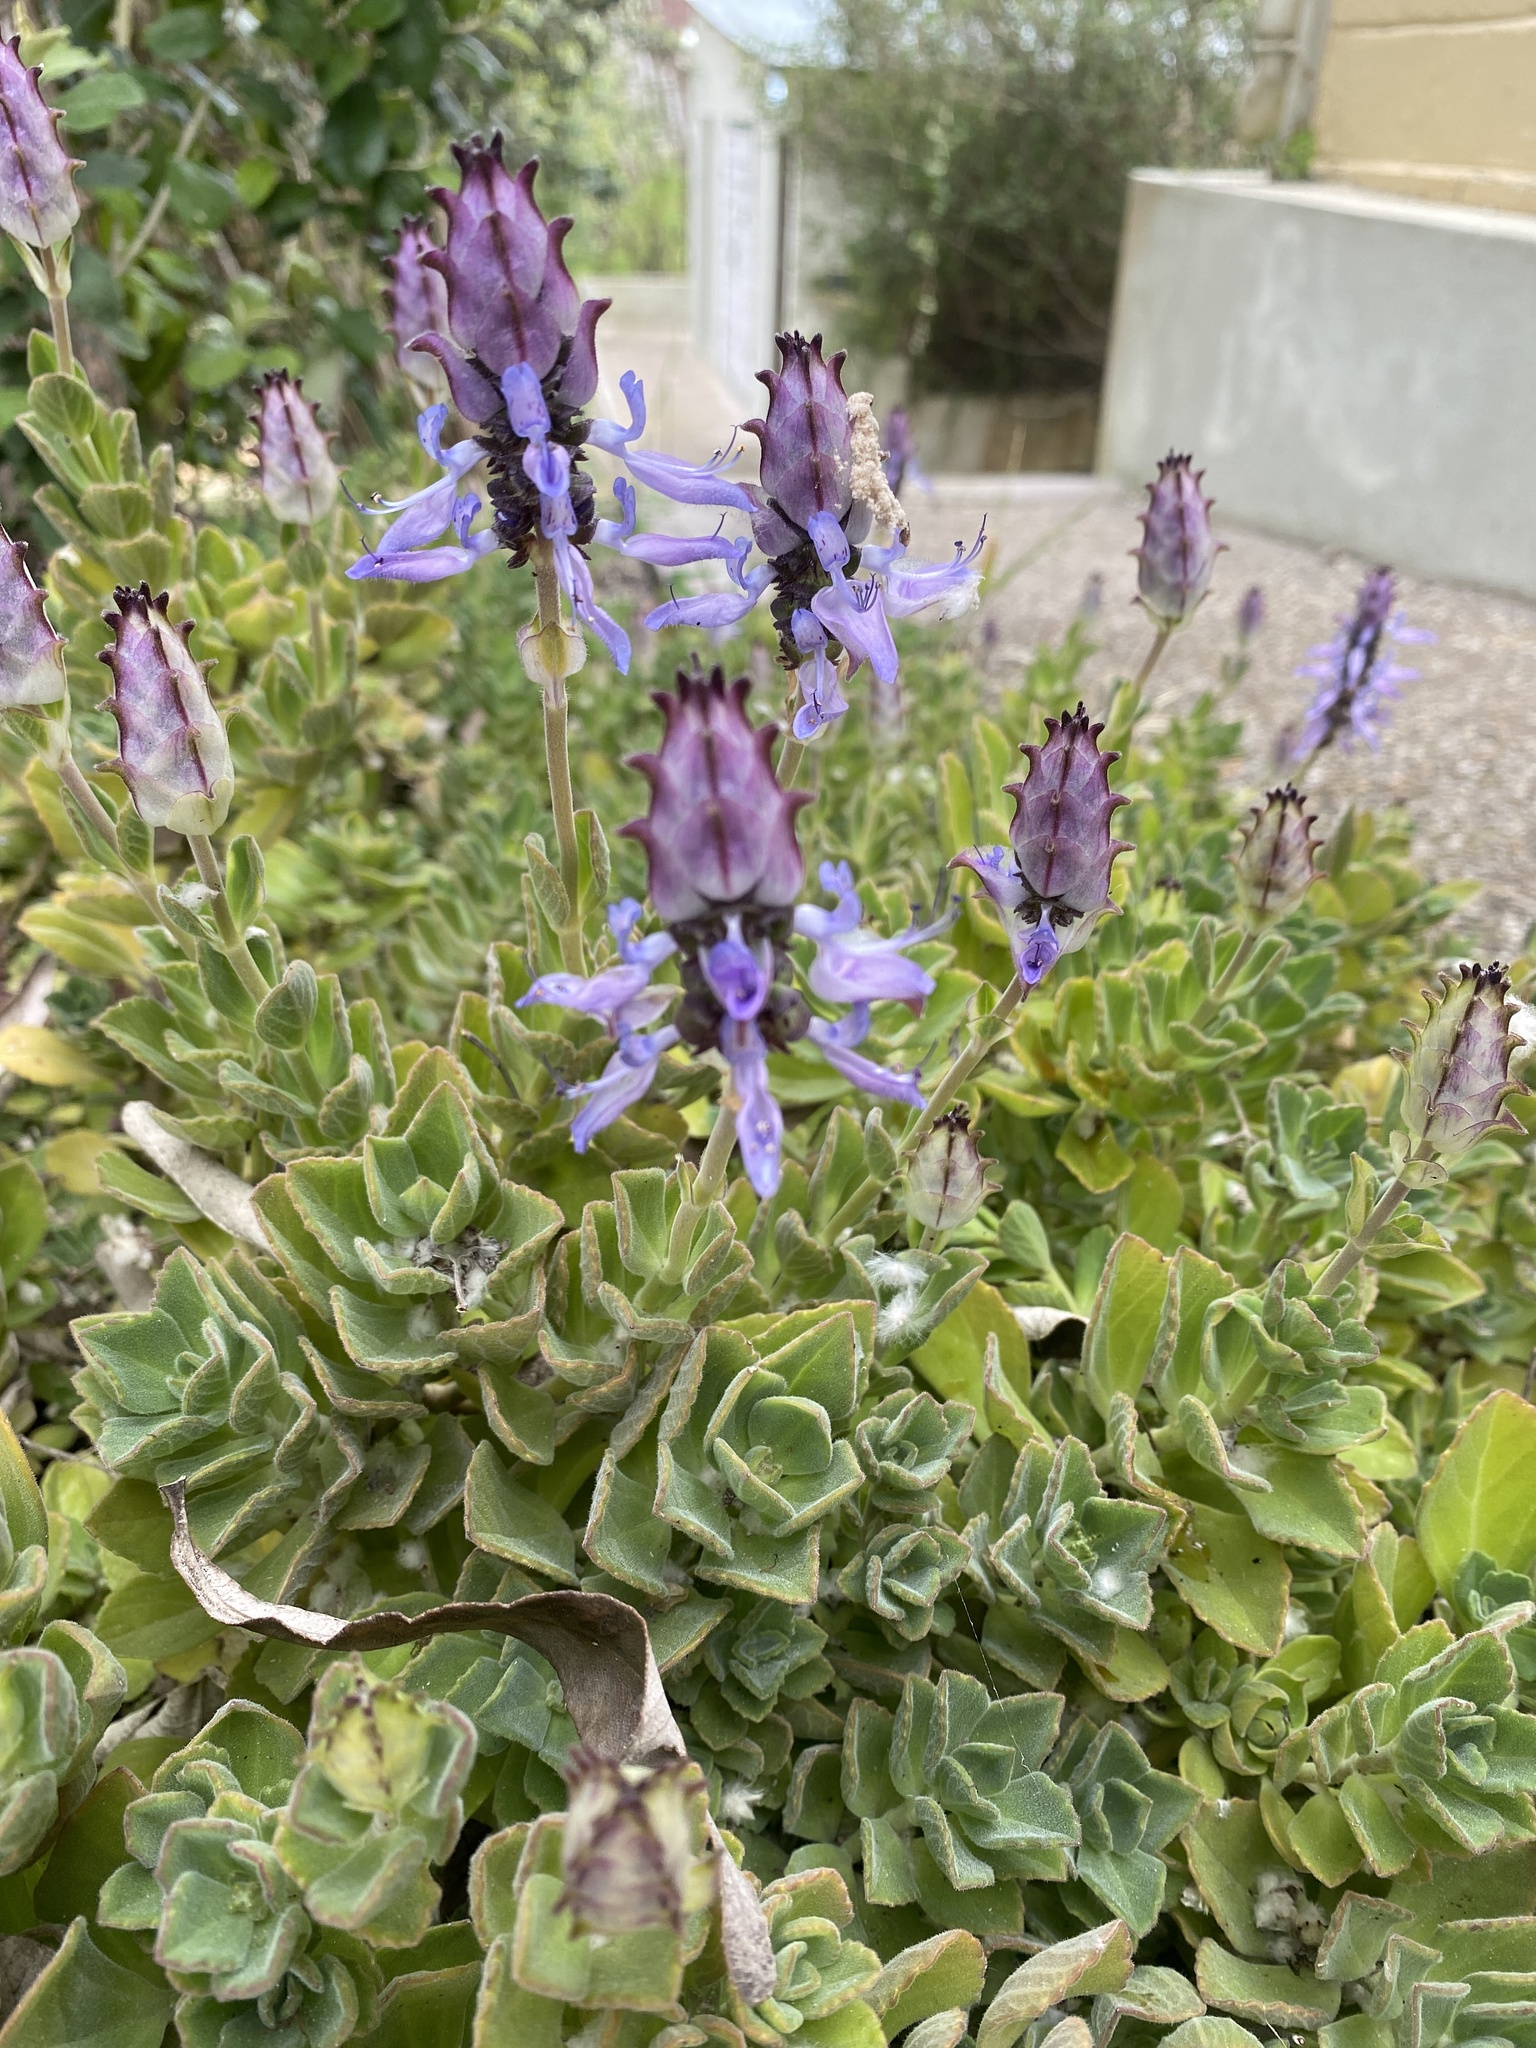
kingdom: Plantae
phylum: Tracheophyta
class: Magnoliopsida
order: Lamiales
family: Lamiaceae
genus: Coleus
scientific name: Coleus neochilus
